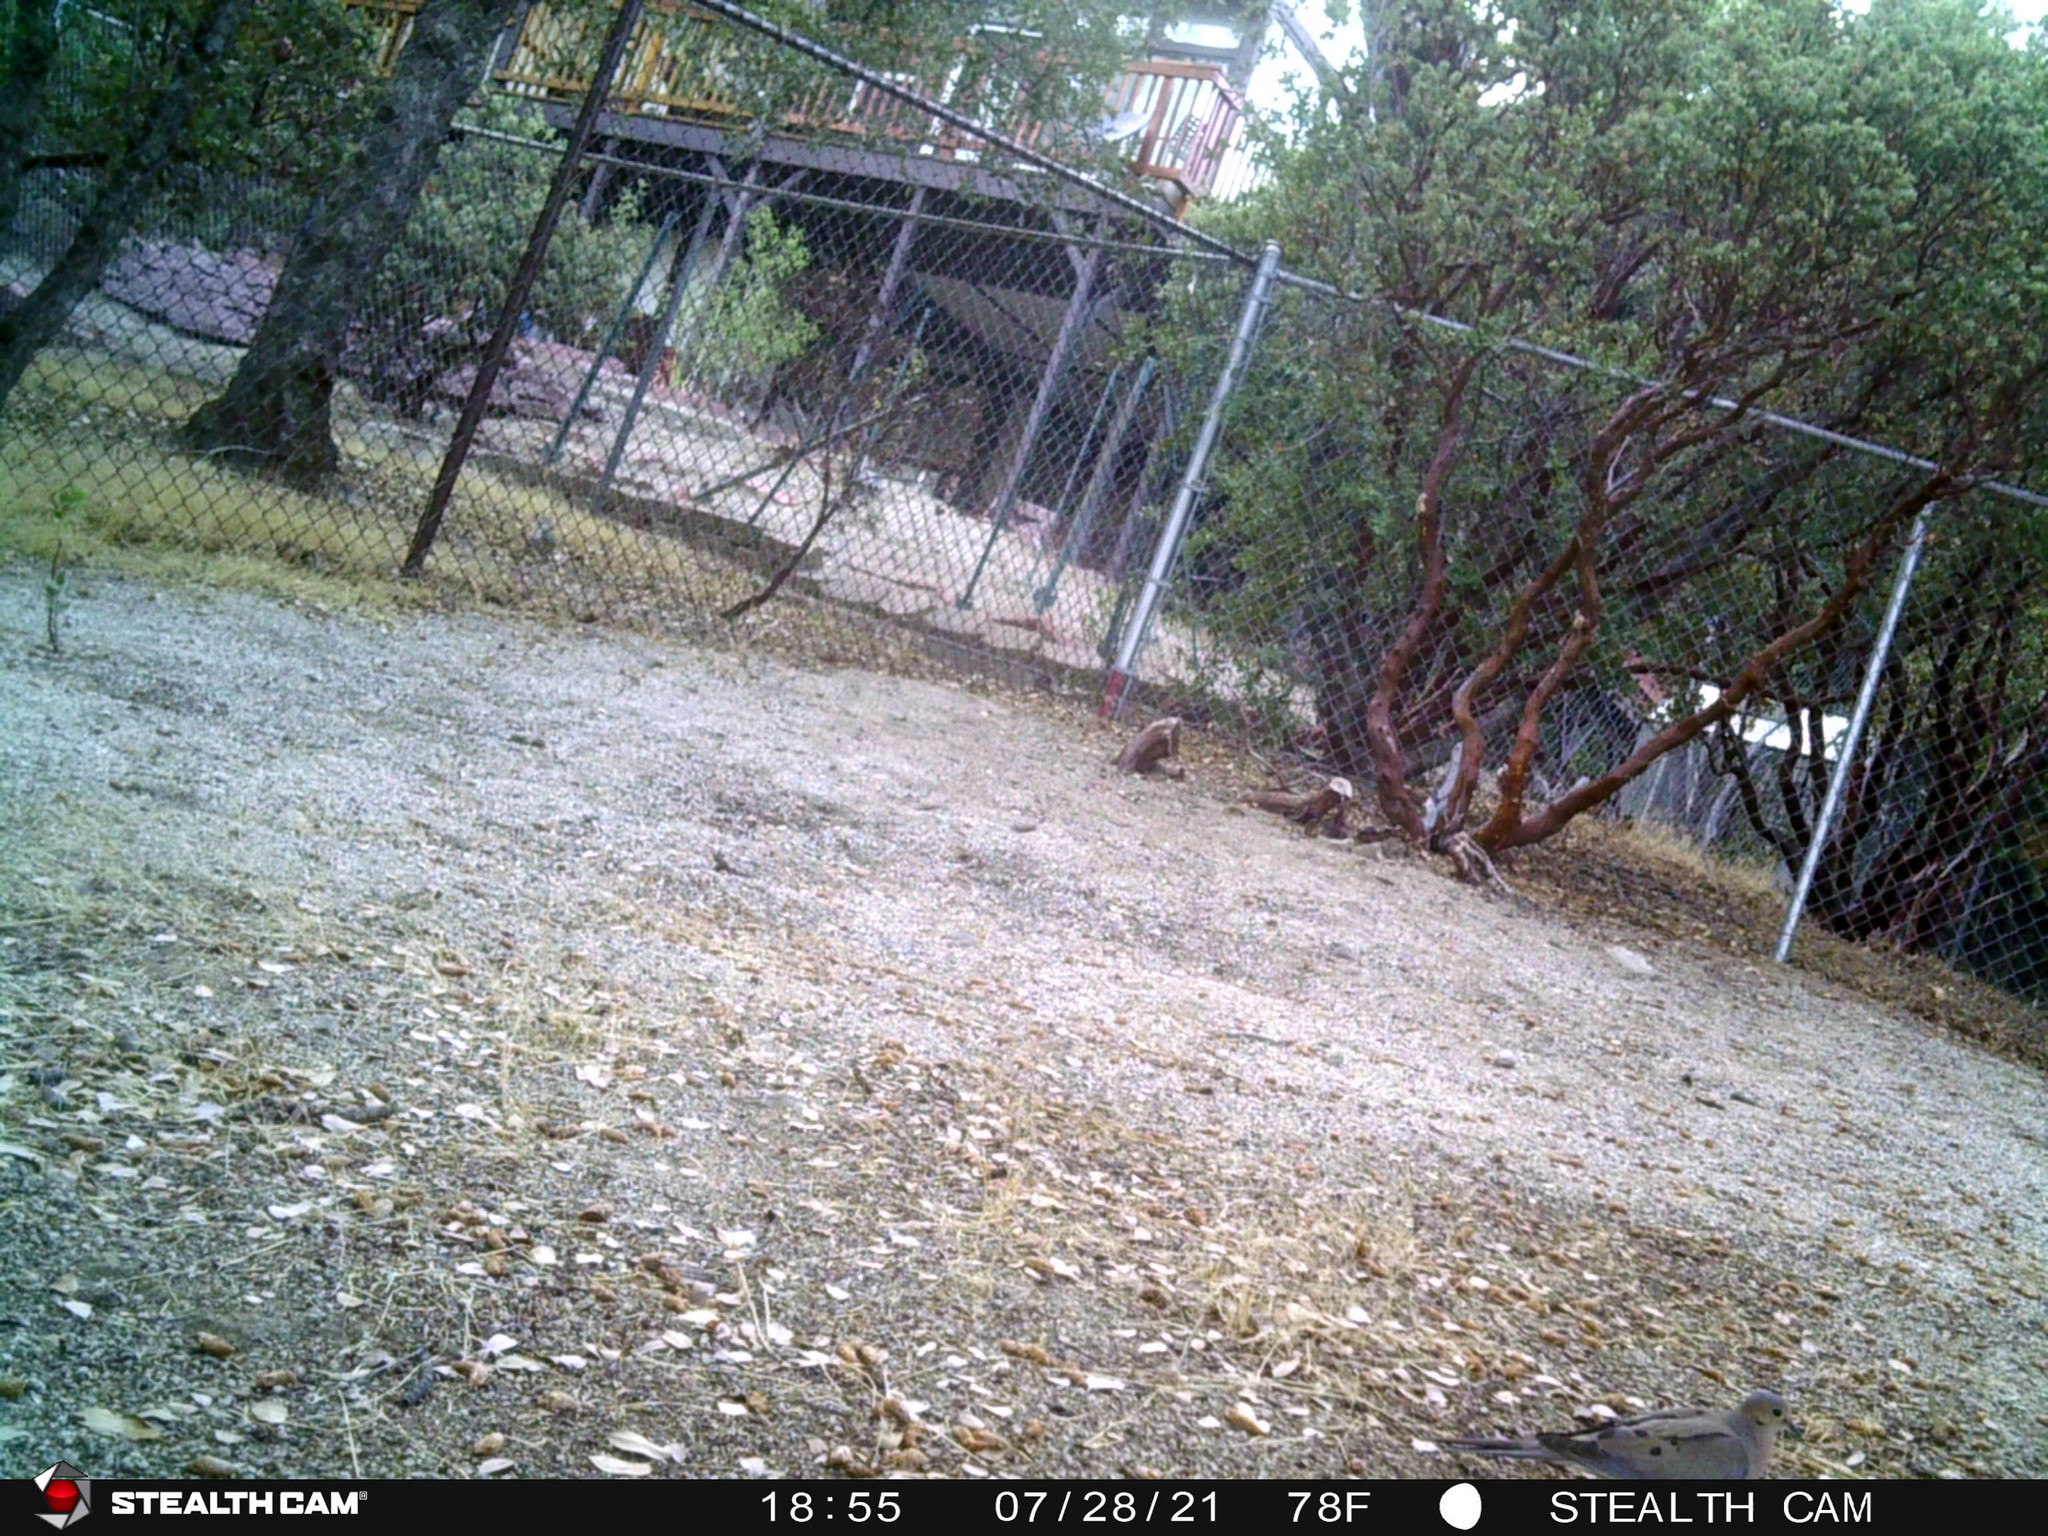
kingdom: Animalia
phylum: Chordata
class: Aves
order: Columbiformes
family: Columbidae
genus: Zenaida
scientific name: Zenaida macroura
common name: Mourning dove
